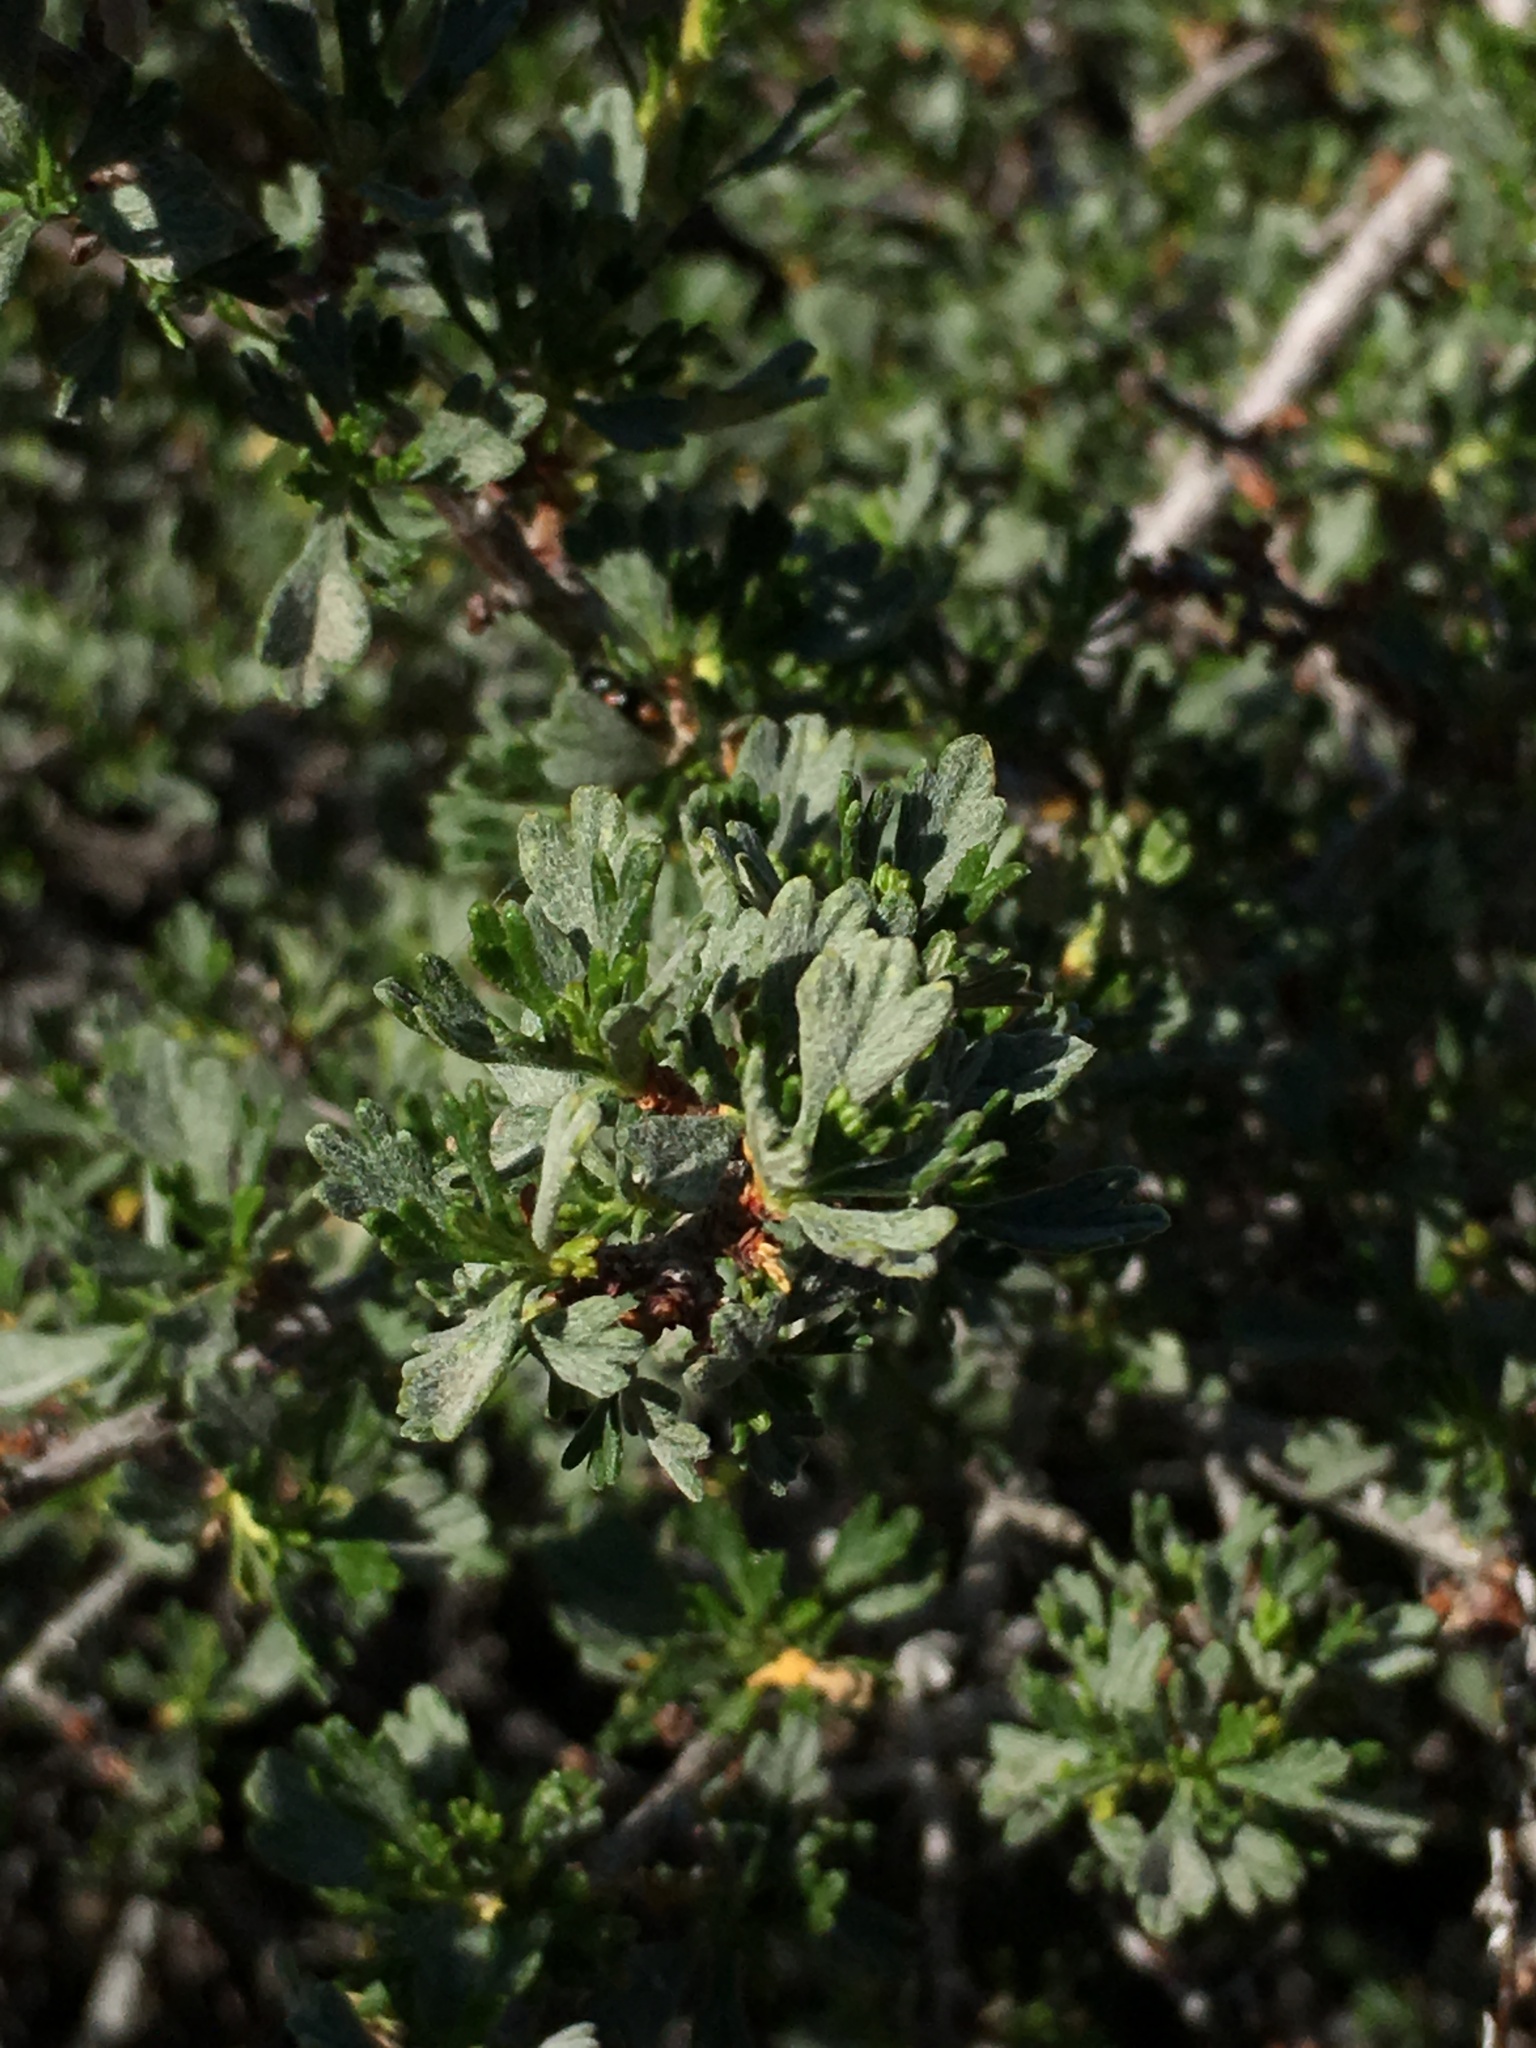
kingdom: Plantae
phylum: Tracheophyta
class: Magnoliopsida
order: Rosales
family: Rosaceae
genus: Purshia
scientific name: Purshia tridentata
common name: Antelope bitterbrush
